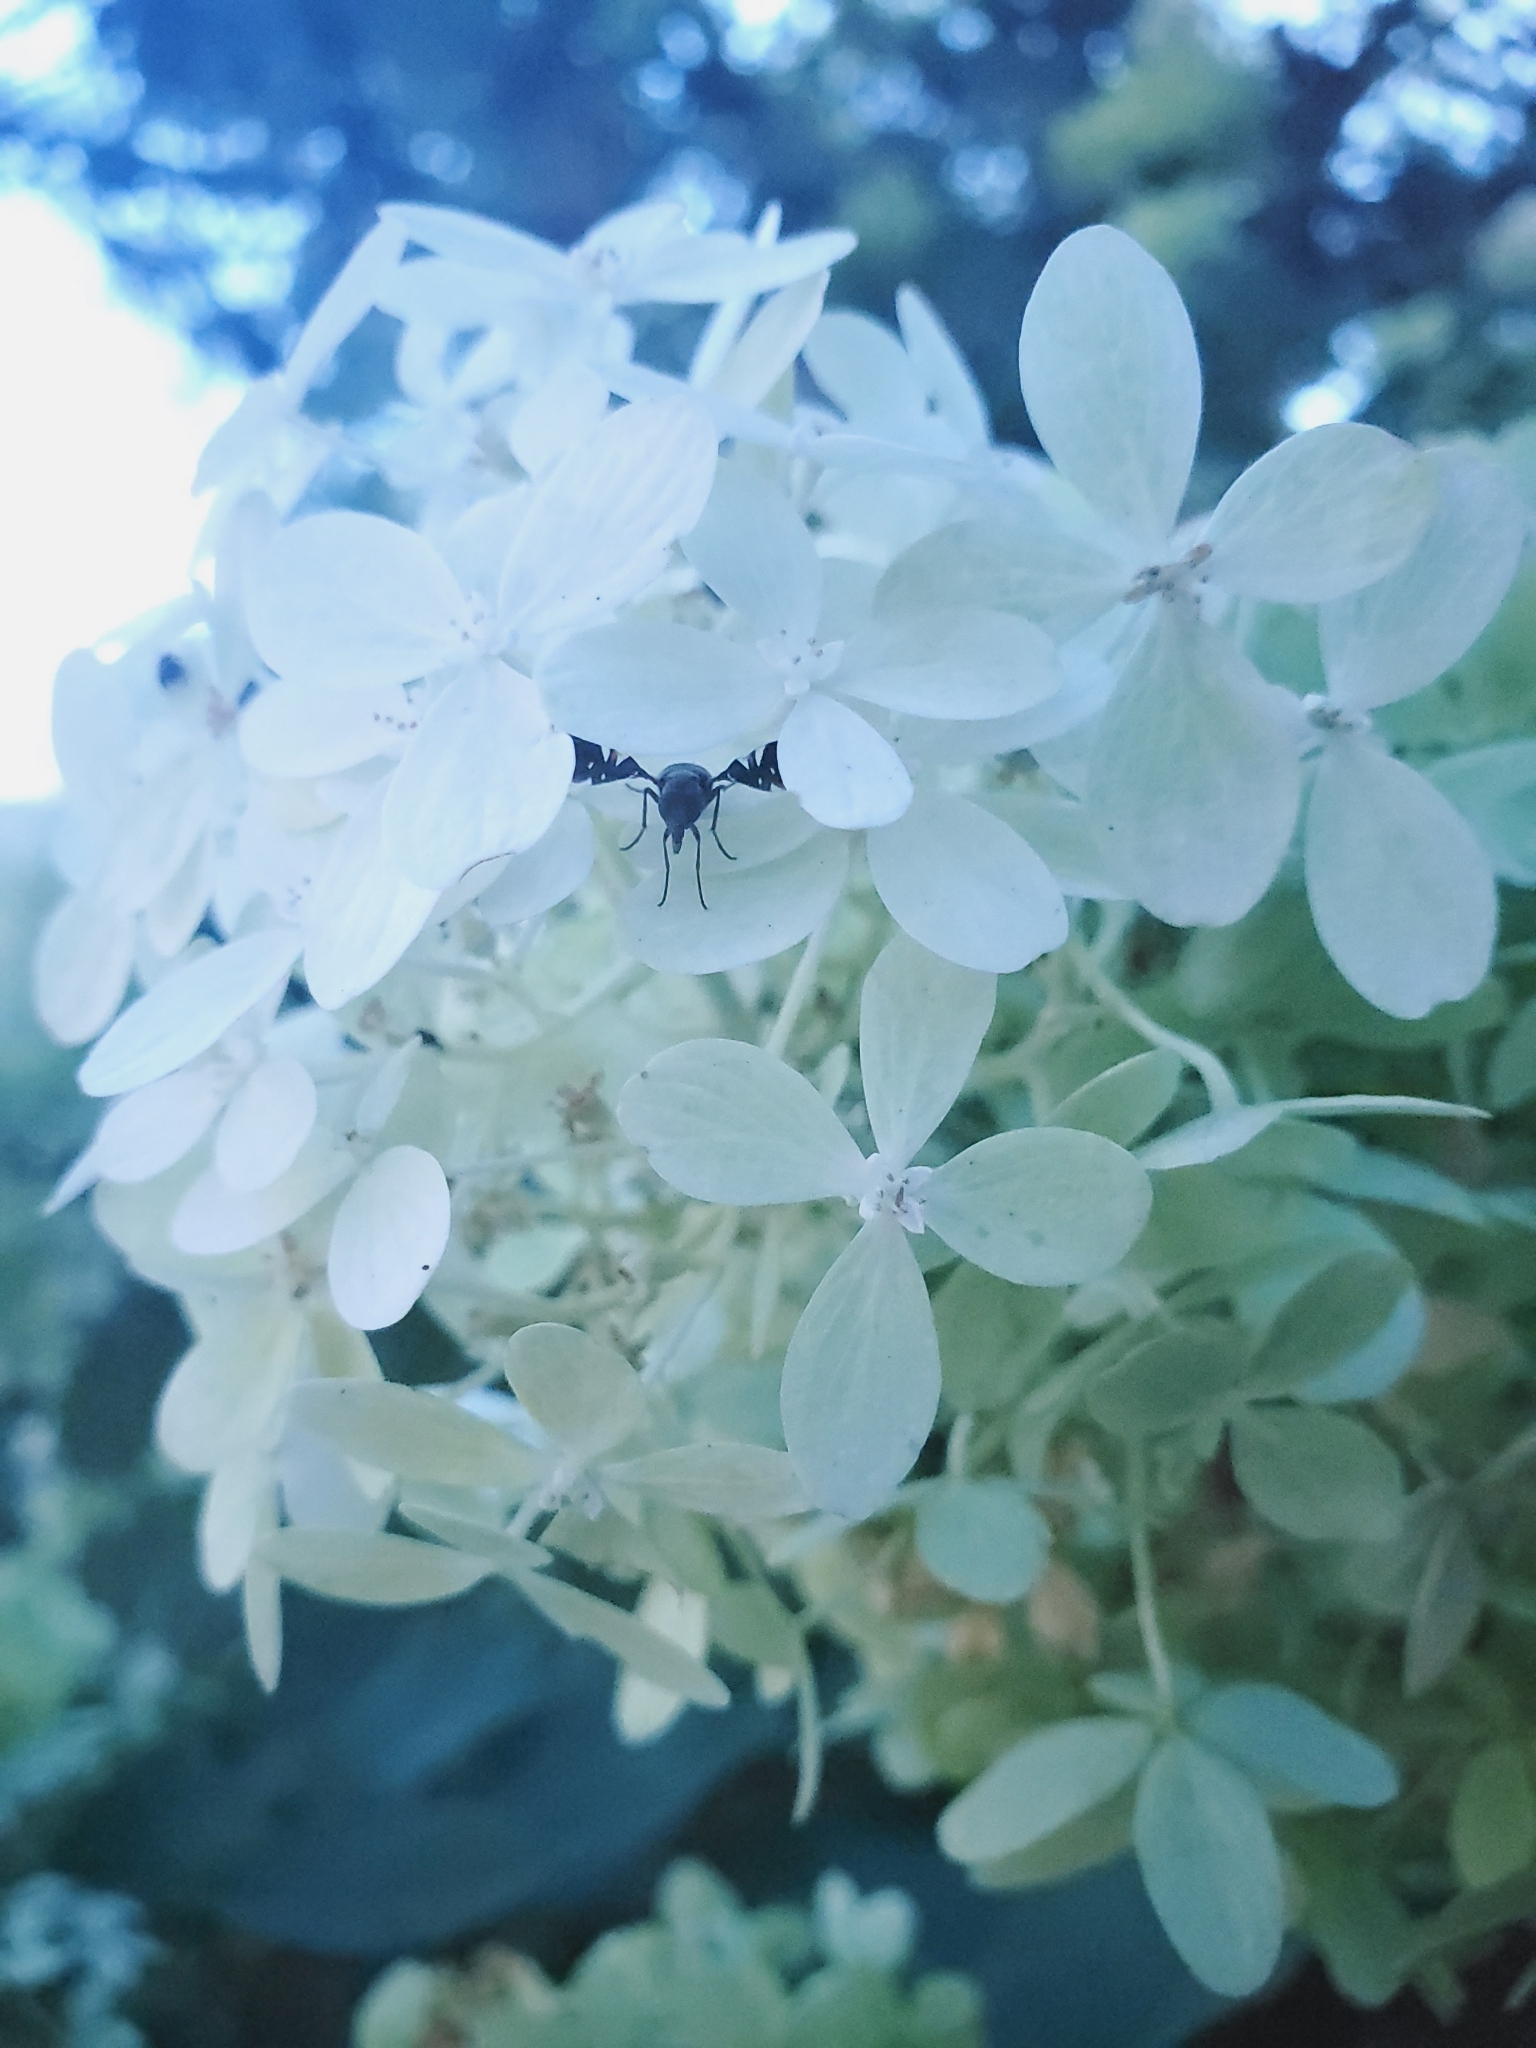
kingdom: Animalia
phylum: Arthropoda
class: Insecta
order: Diptera
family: Ulidiidae
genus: Delphinia
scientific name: Delphinia picta
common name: Common picture-winged fly
